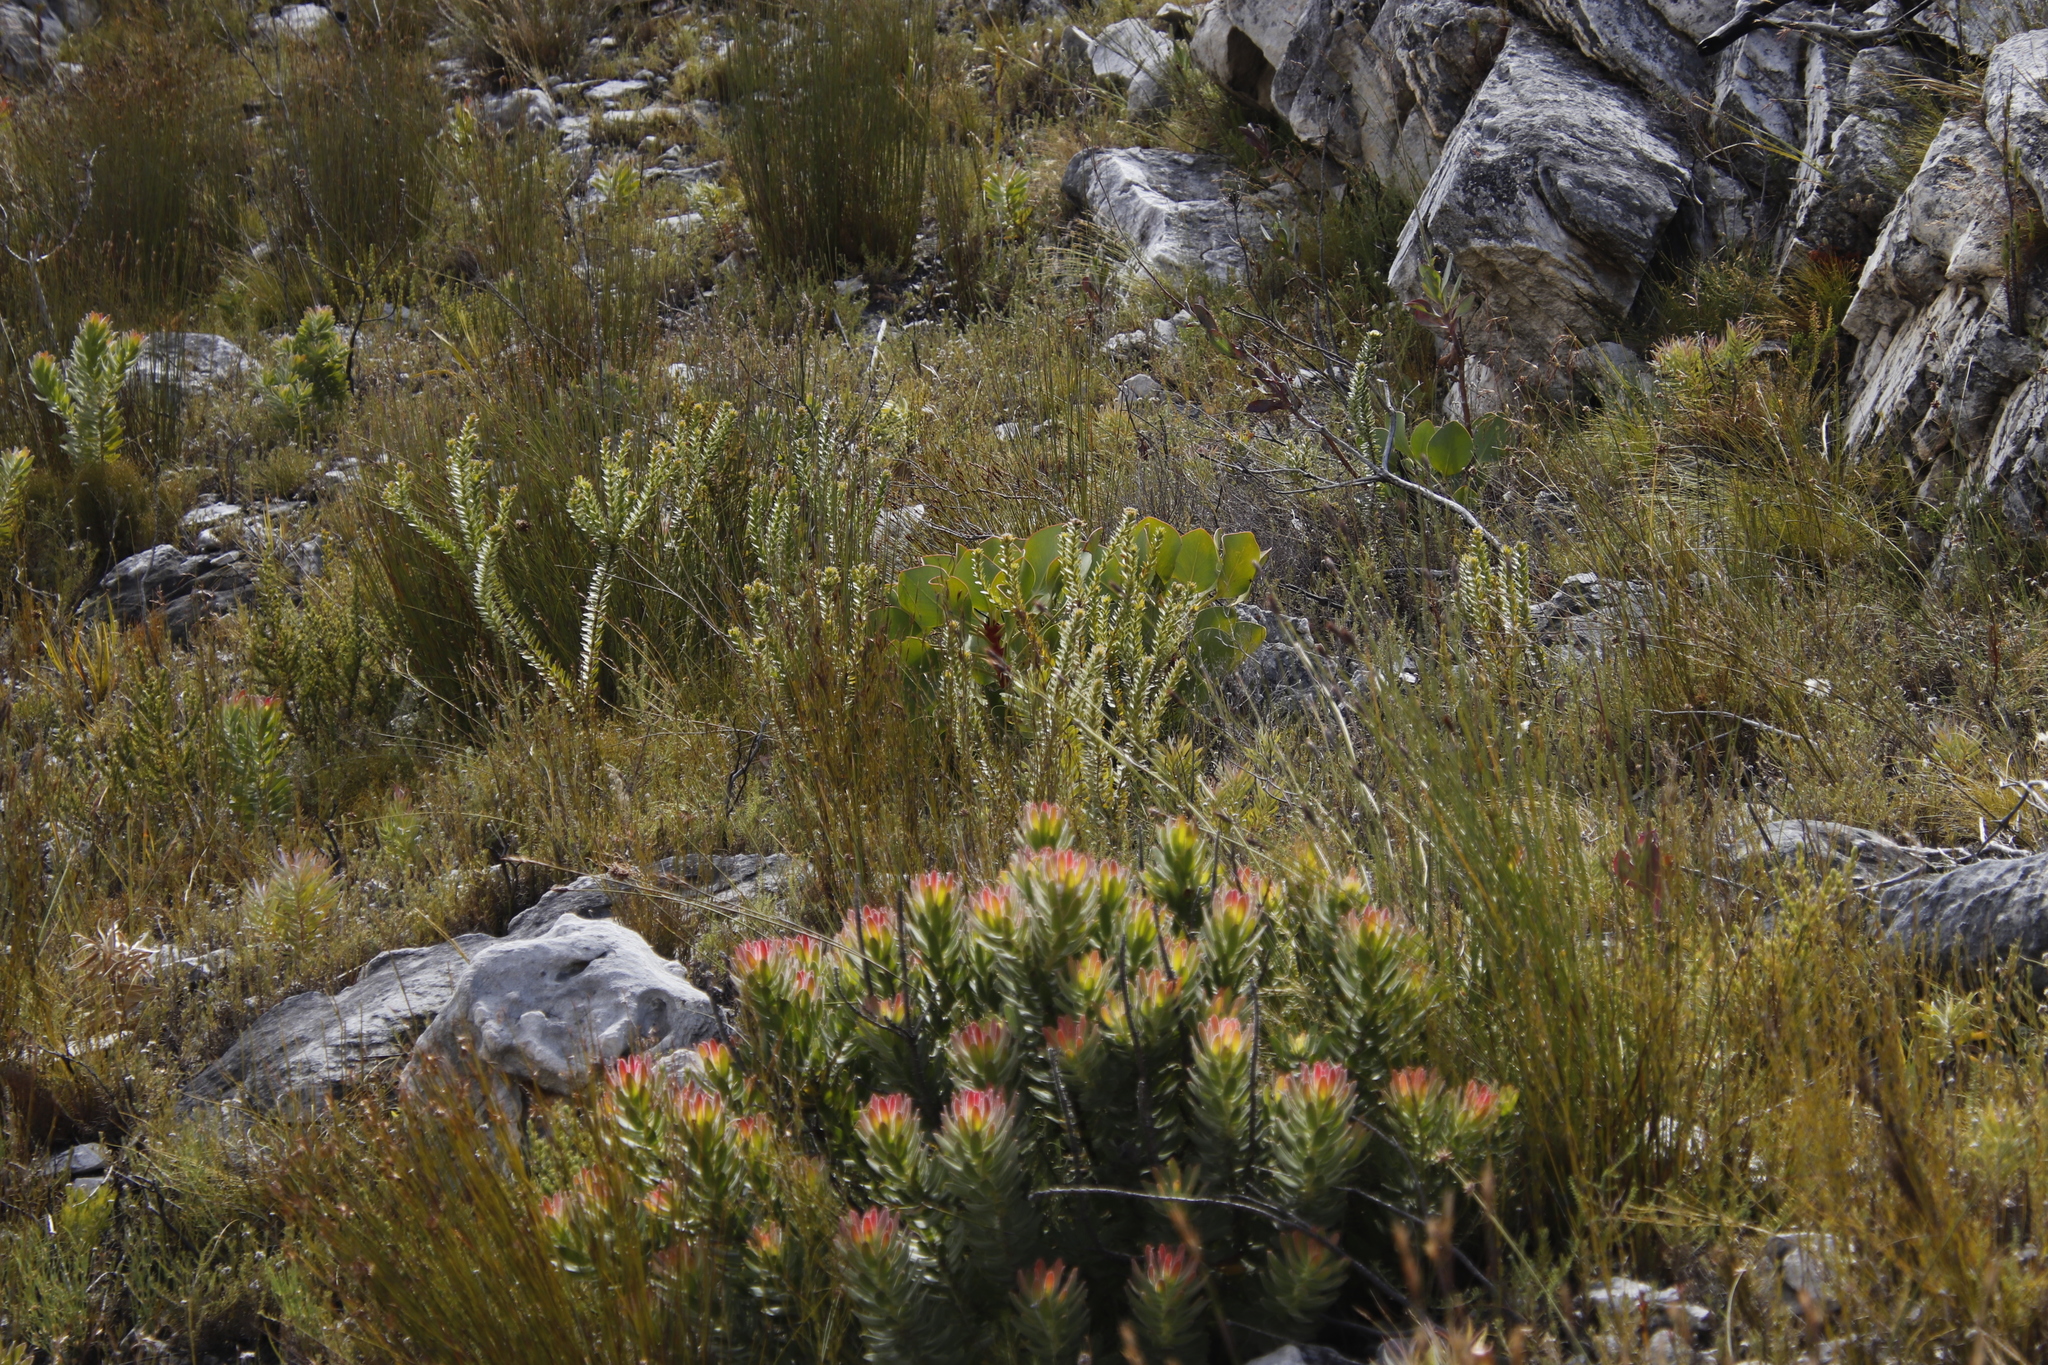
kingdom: Plantae
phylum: Tracheophyta
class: Magnoliopsida
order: Proteales
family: Proteaceae
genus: Protea
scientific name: Protea cynaroides
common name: King protea
